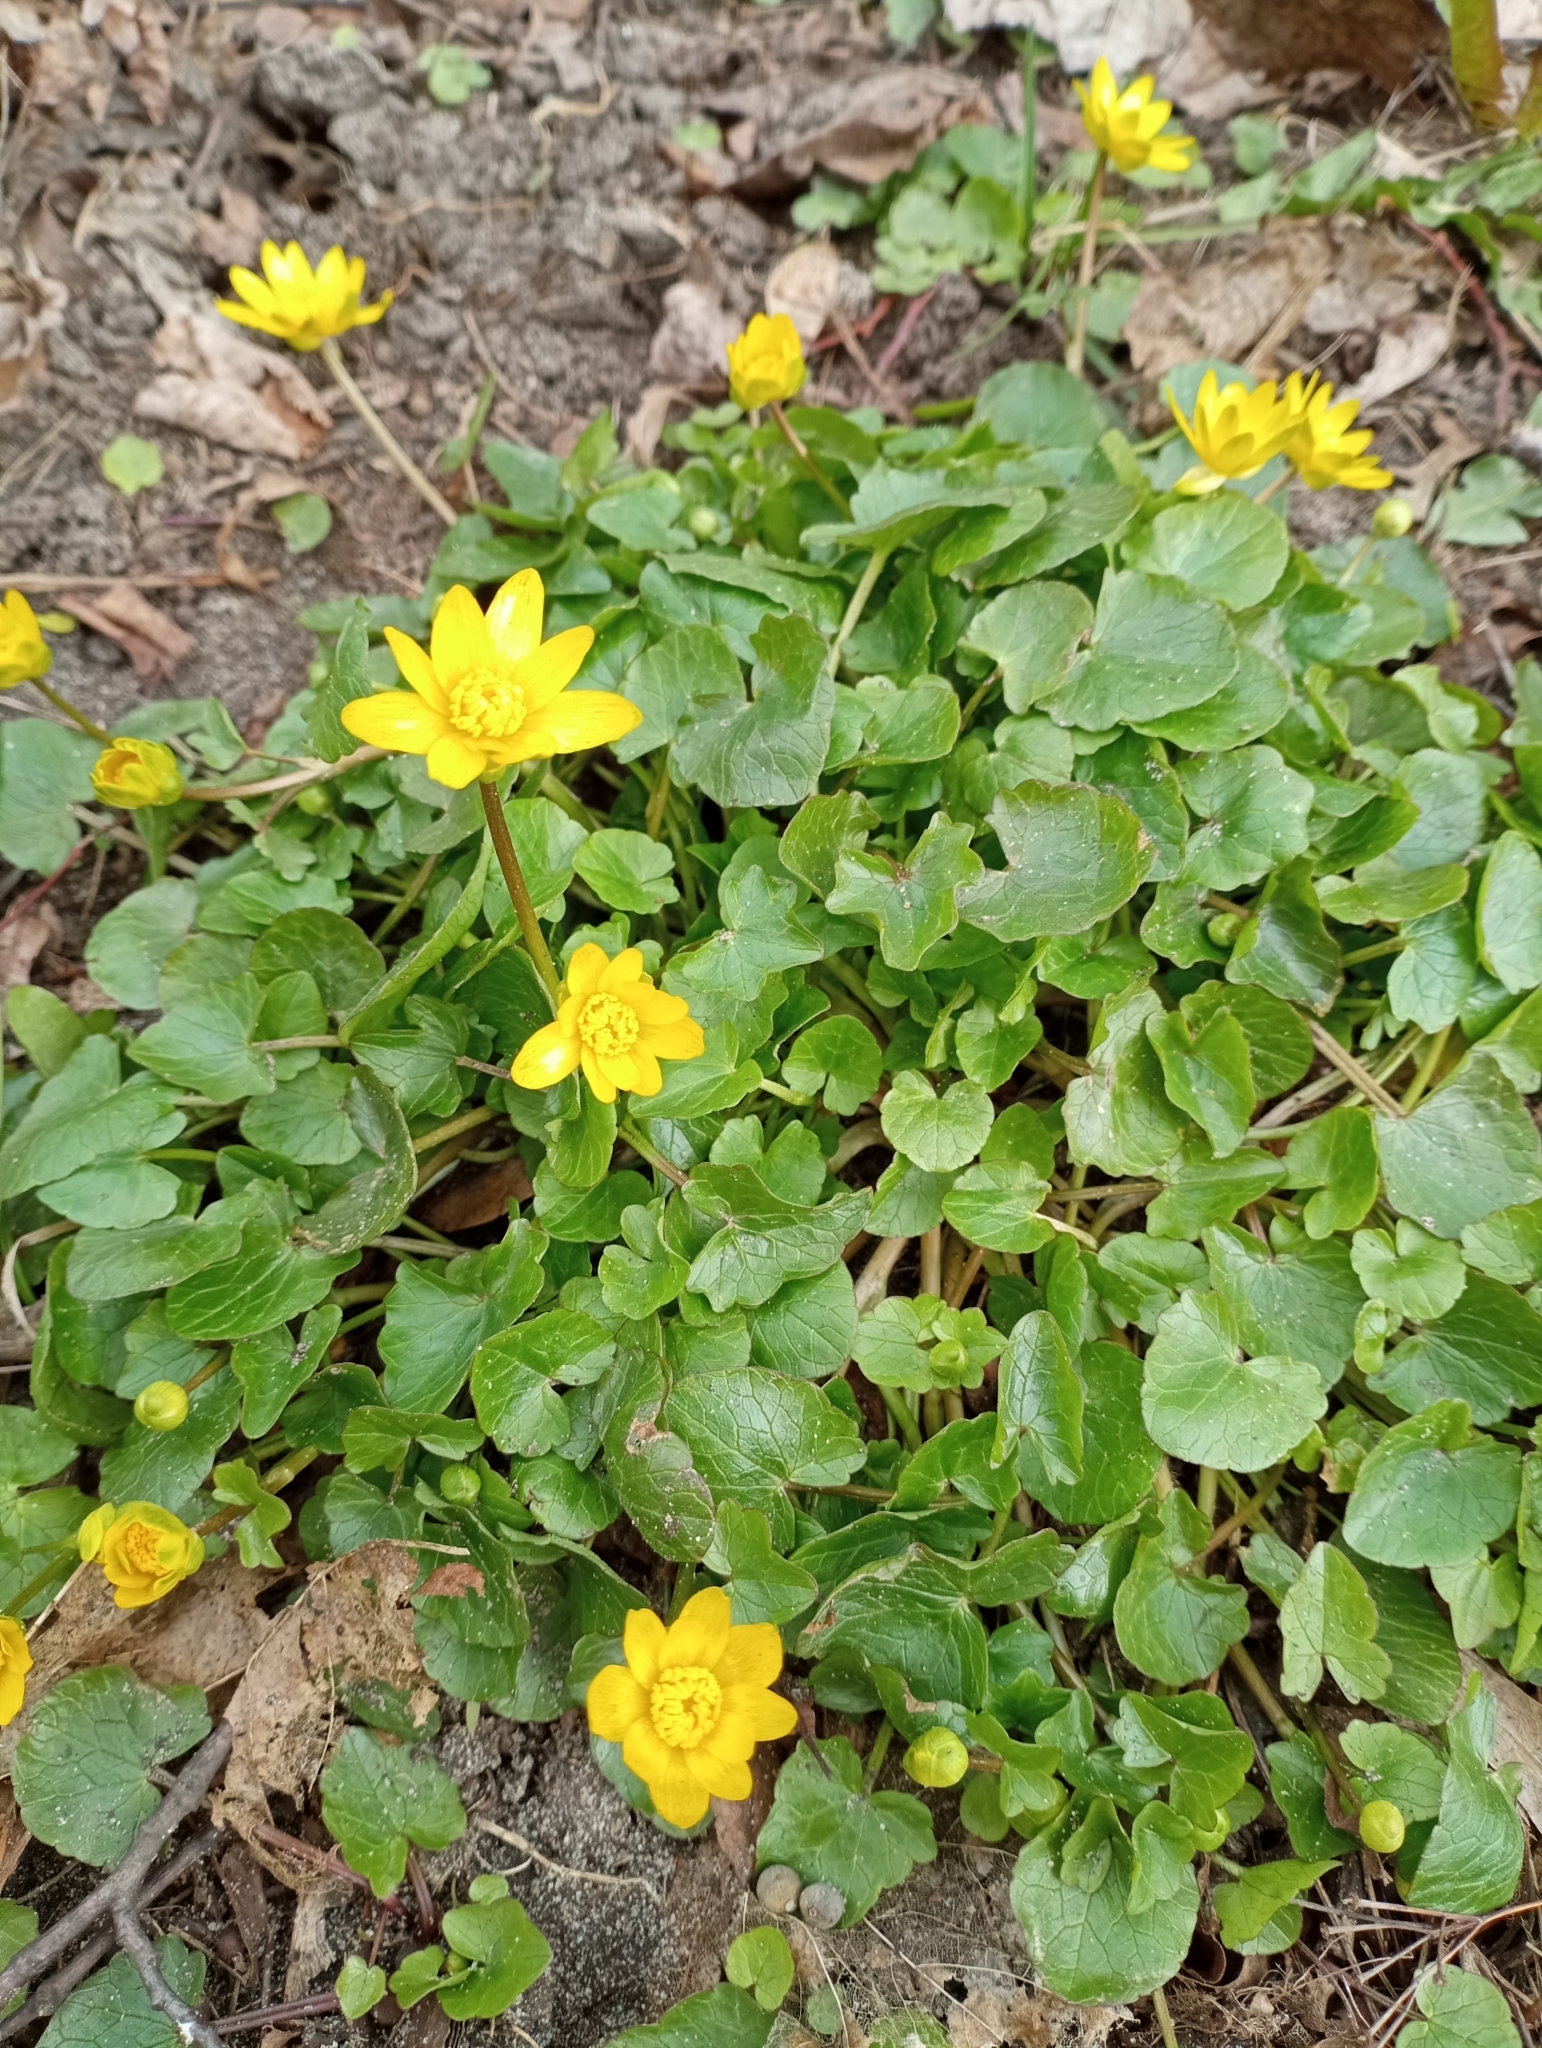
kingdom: Plantae
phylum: Tracheophyta
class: Magnoliopsida
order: Ranunculales
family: Ranunculaceae
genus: Ficaria
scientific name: Ficaria verna
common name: Lesser celandine
